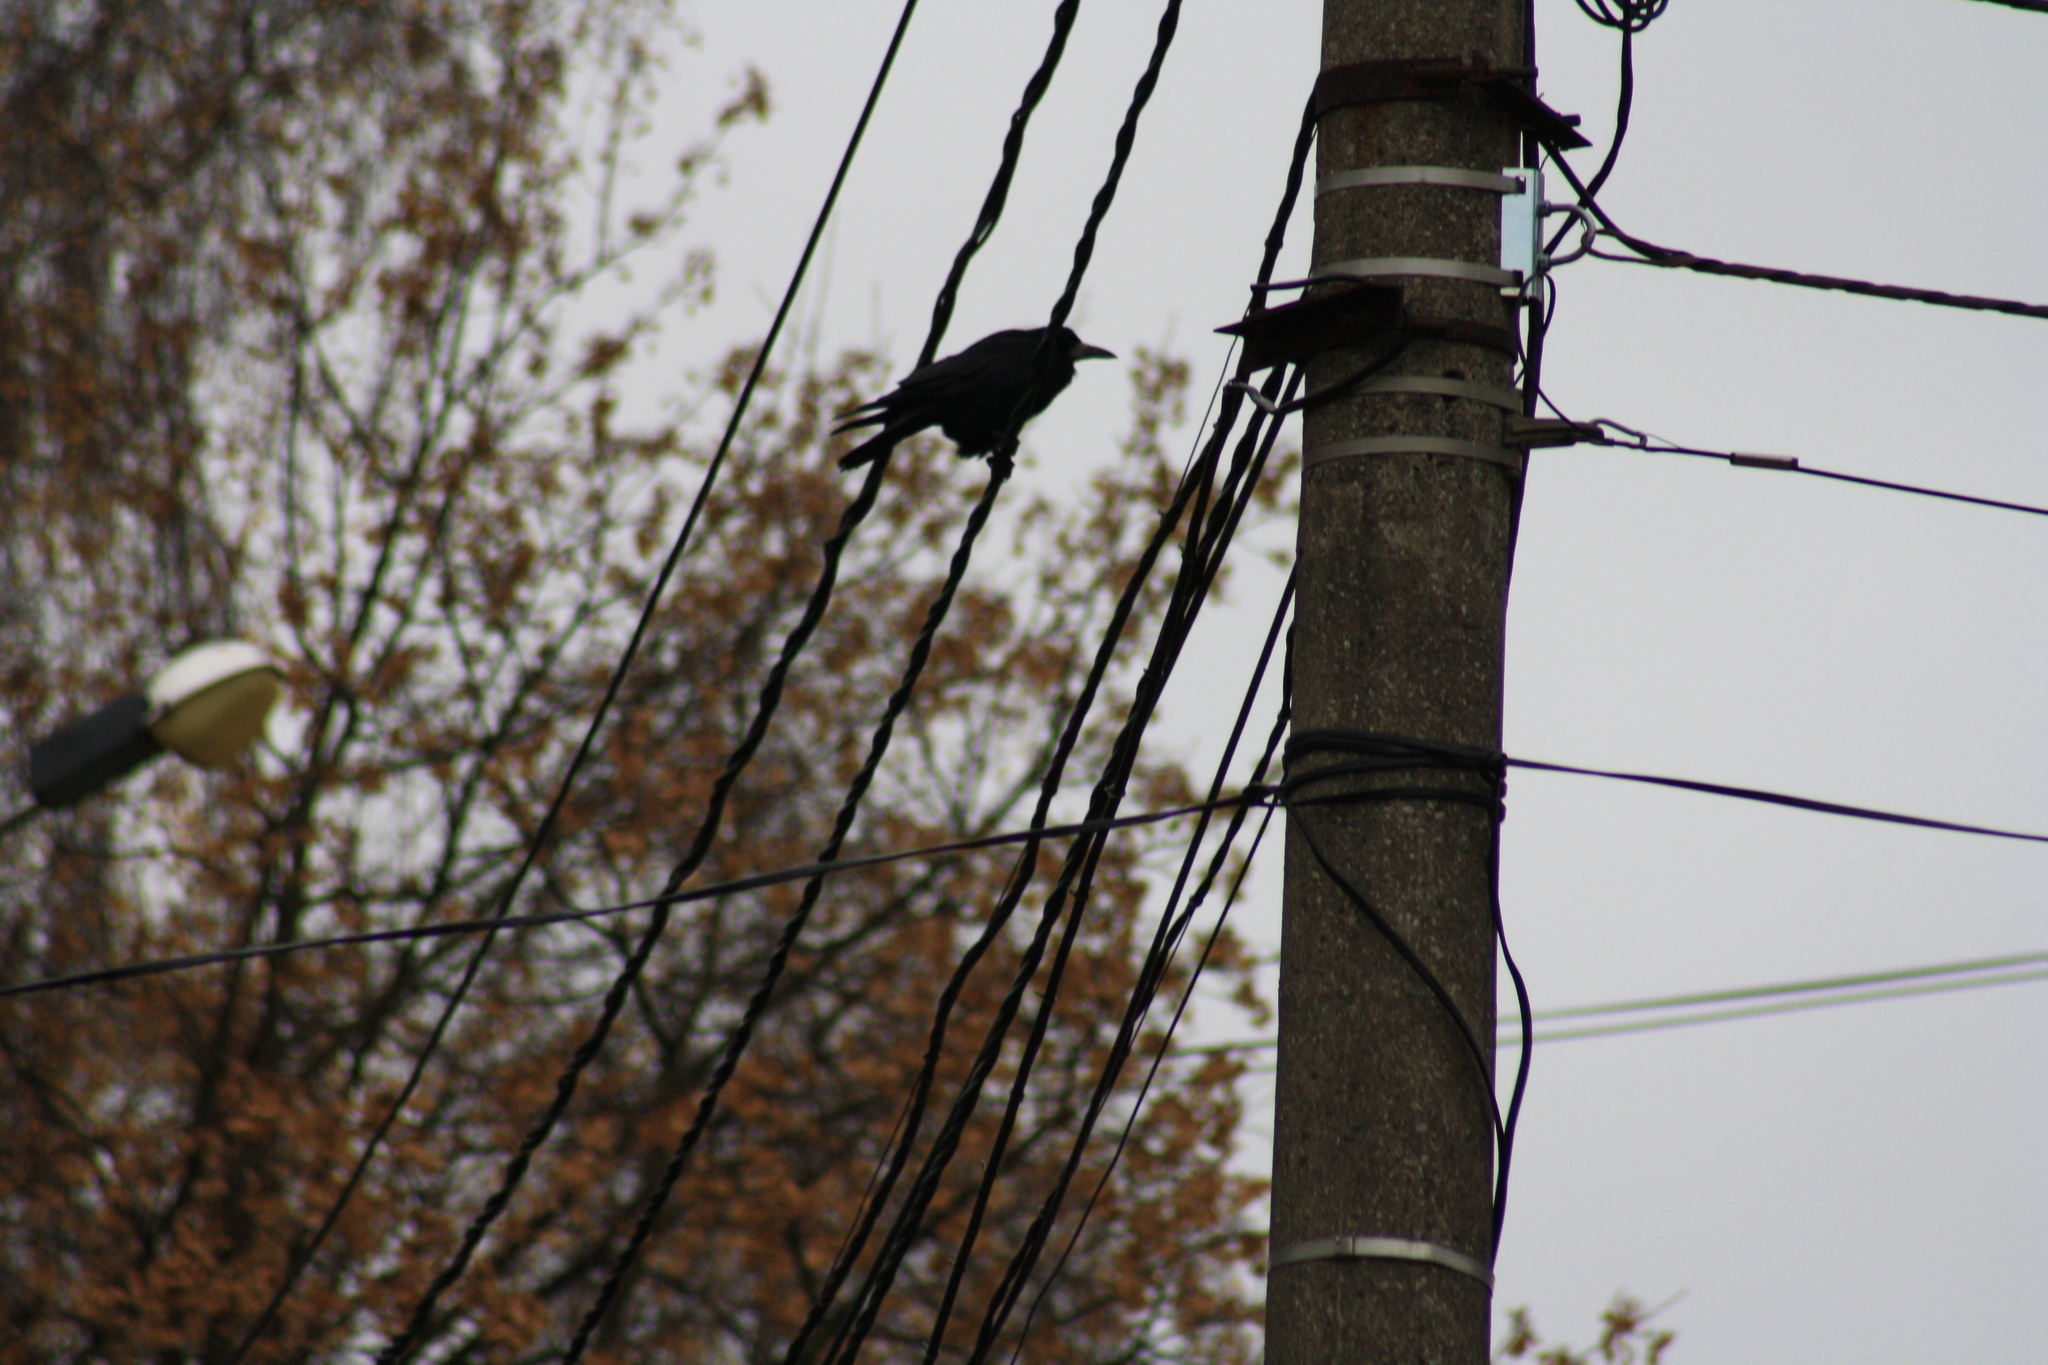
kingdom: Animalia
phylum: Chordata
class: Aves
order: Passeriformes
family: Corvidae
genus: Corvus
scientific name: Corvus frugilegus
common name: Rook
